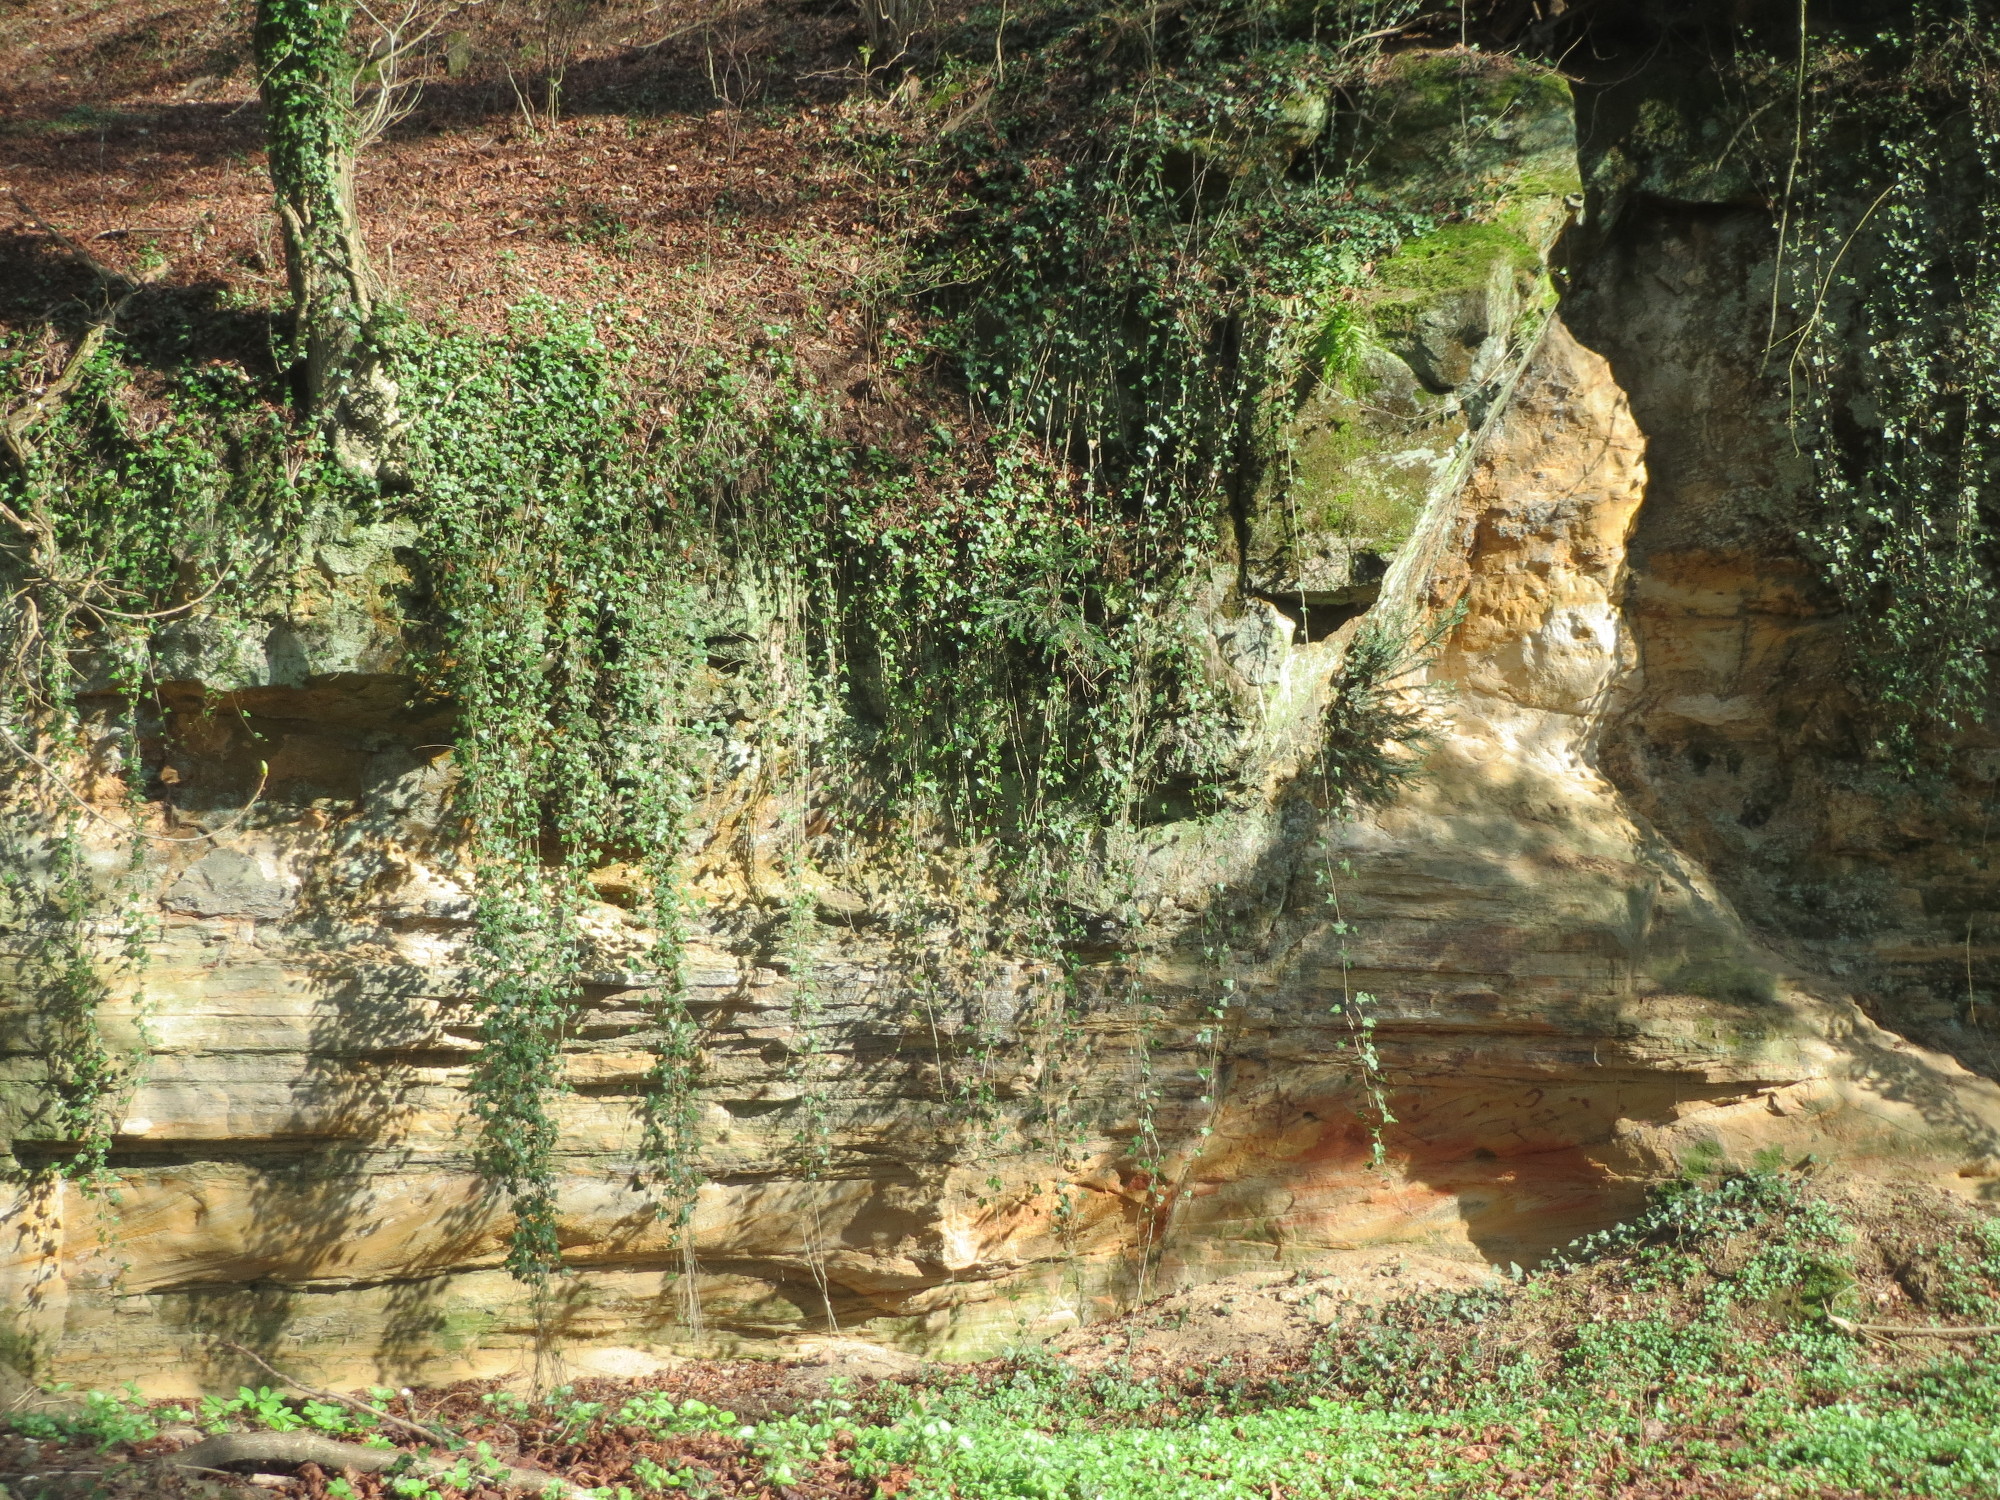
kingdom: Plantae
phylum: Tracheophyta
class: Magnoliopsida
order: Apiales
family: Araliaceae
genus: Hedera
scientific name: Hedera helix
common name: Ivy
